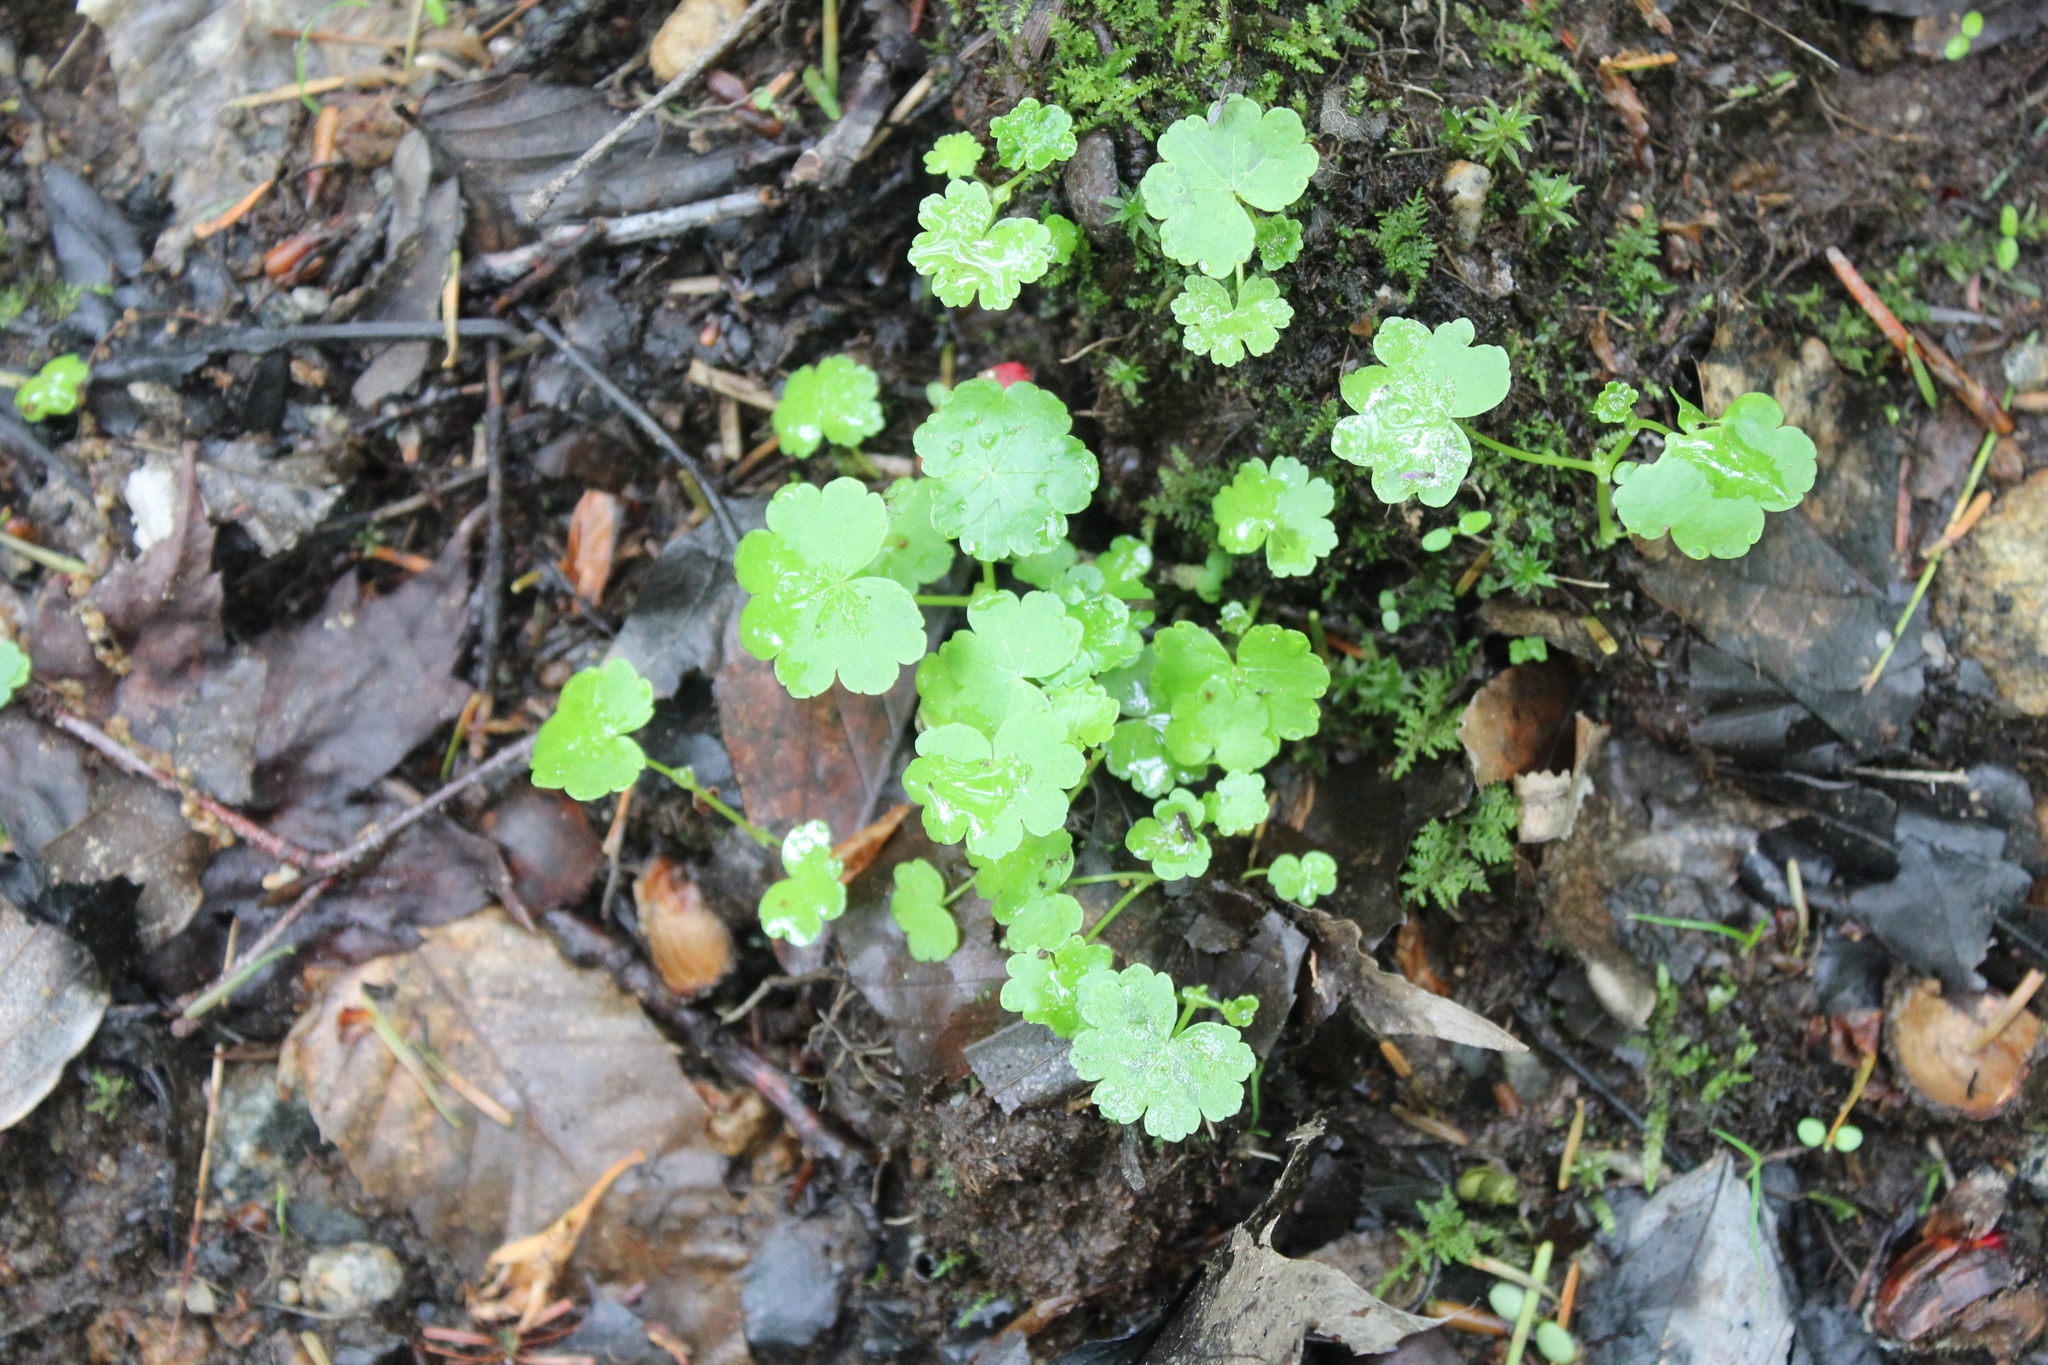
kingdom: Plantae
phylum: Tracheophyta
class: Magnoliopsida
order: Apiales
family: Araliaceae
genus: Hydrocotyle
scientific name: Hydrocotyle americana
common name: American water-pennywort
